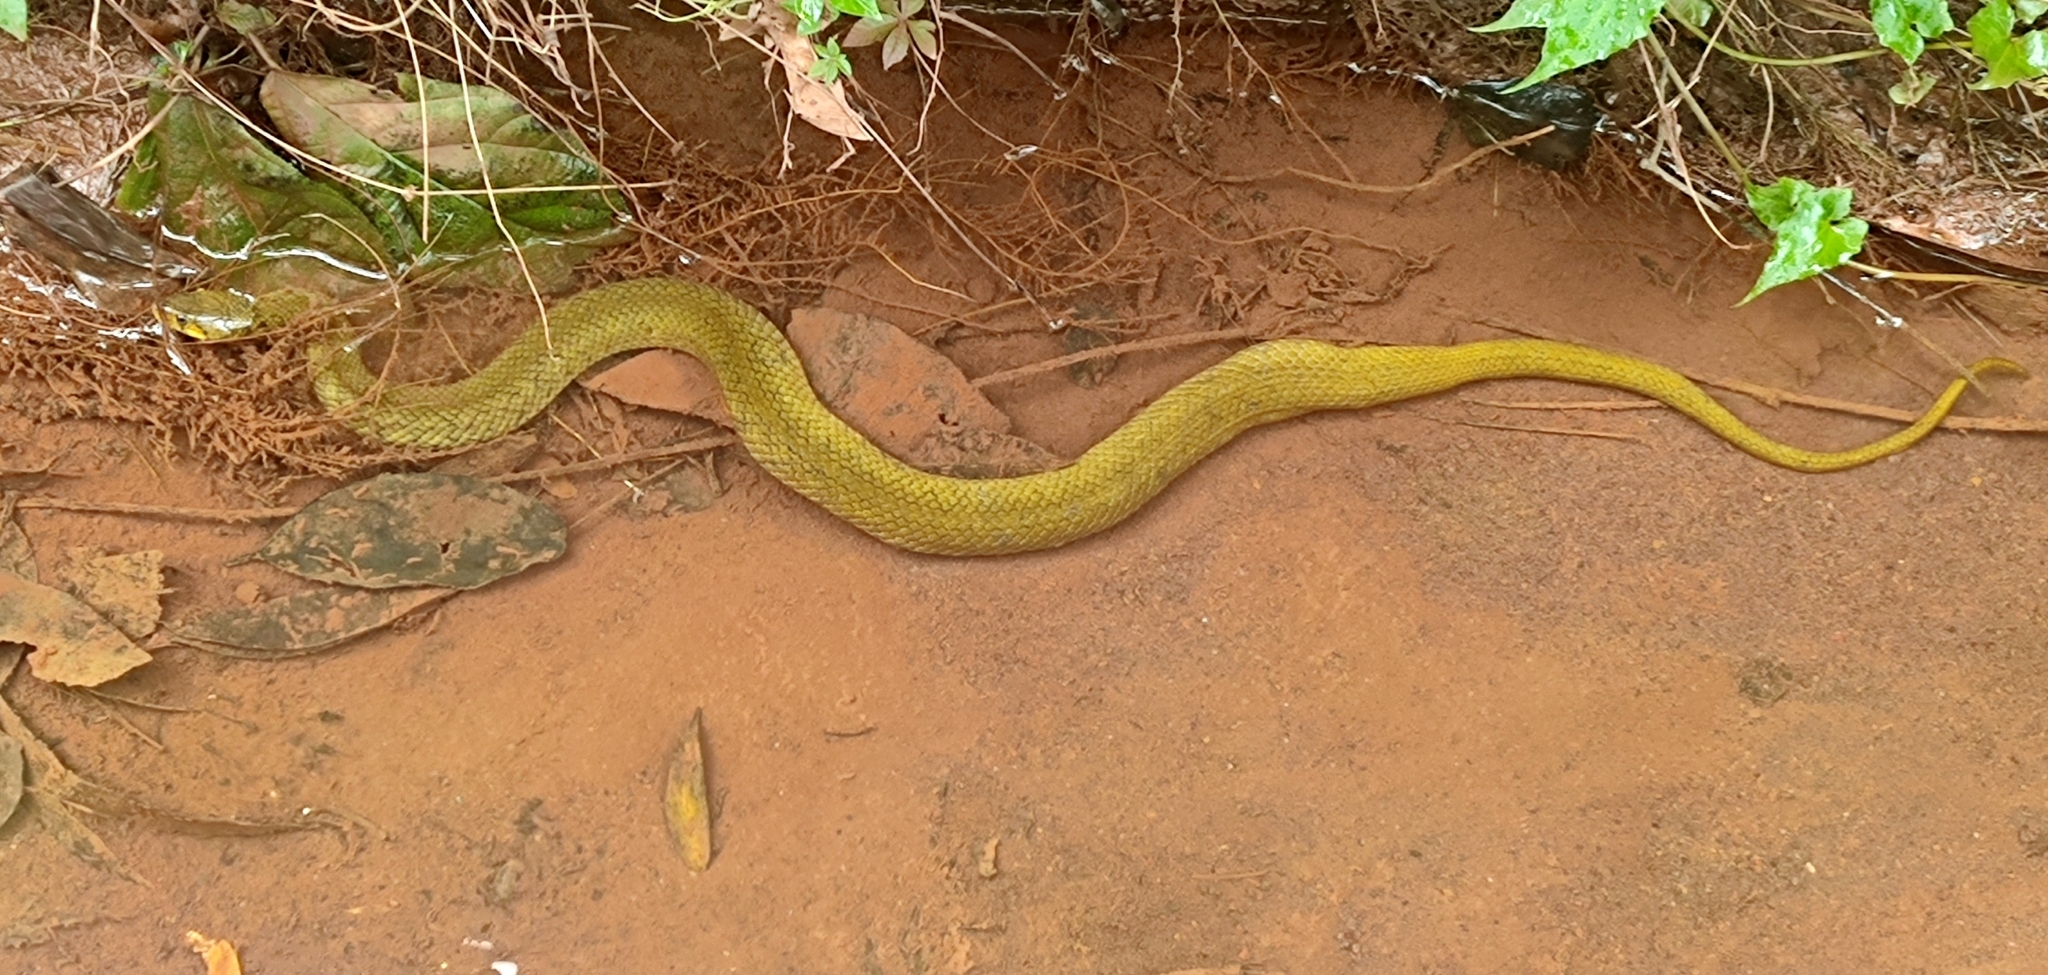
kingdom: Animalia
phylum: Chordata
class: Squamata
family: Colubridae
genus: Fowlea
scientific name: Fowlea piscator
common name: Asiatic water snake
